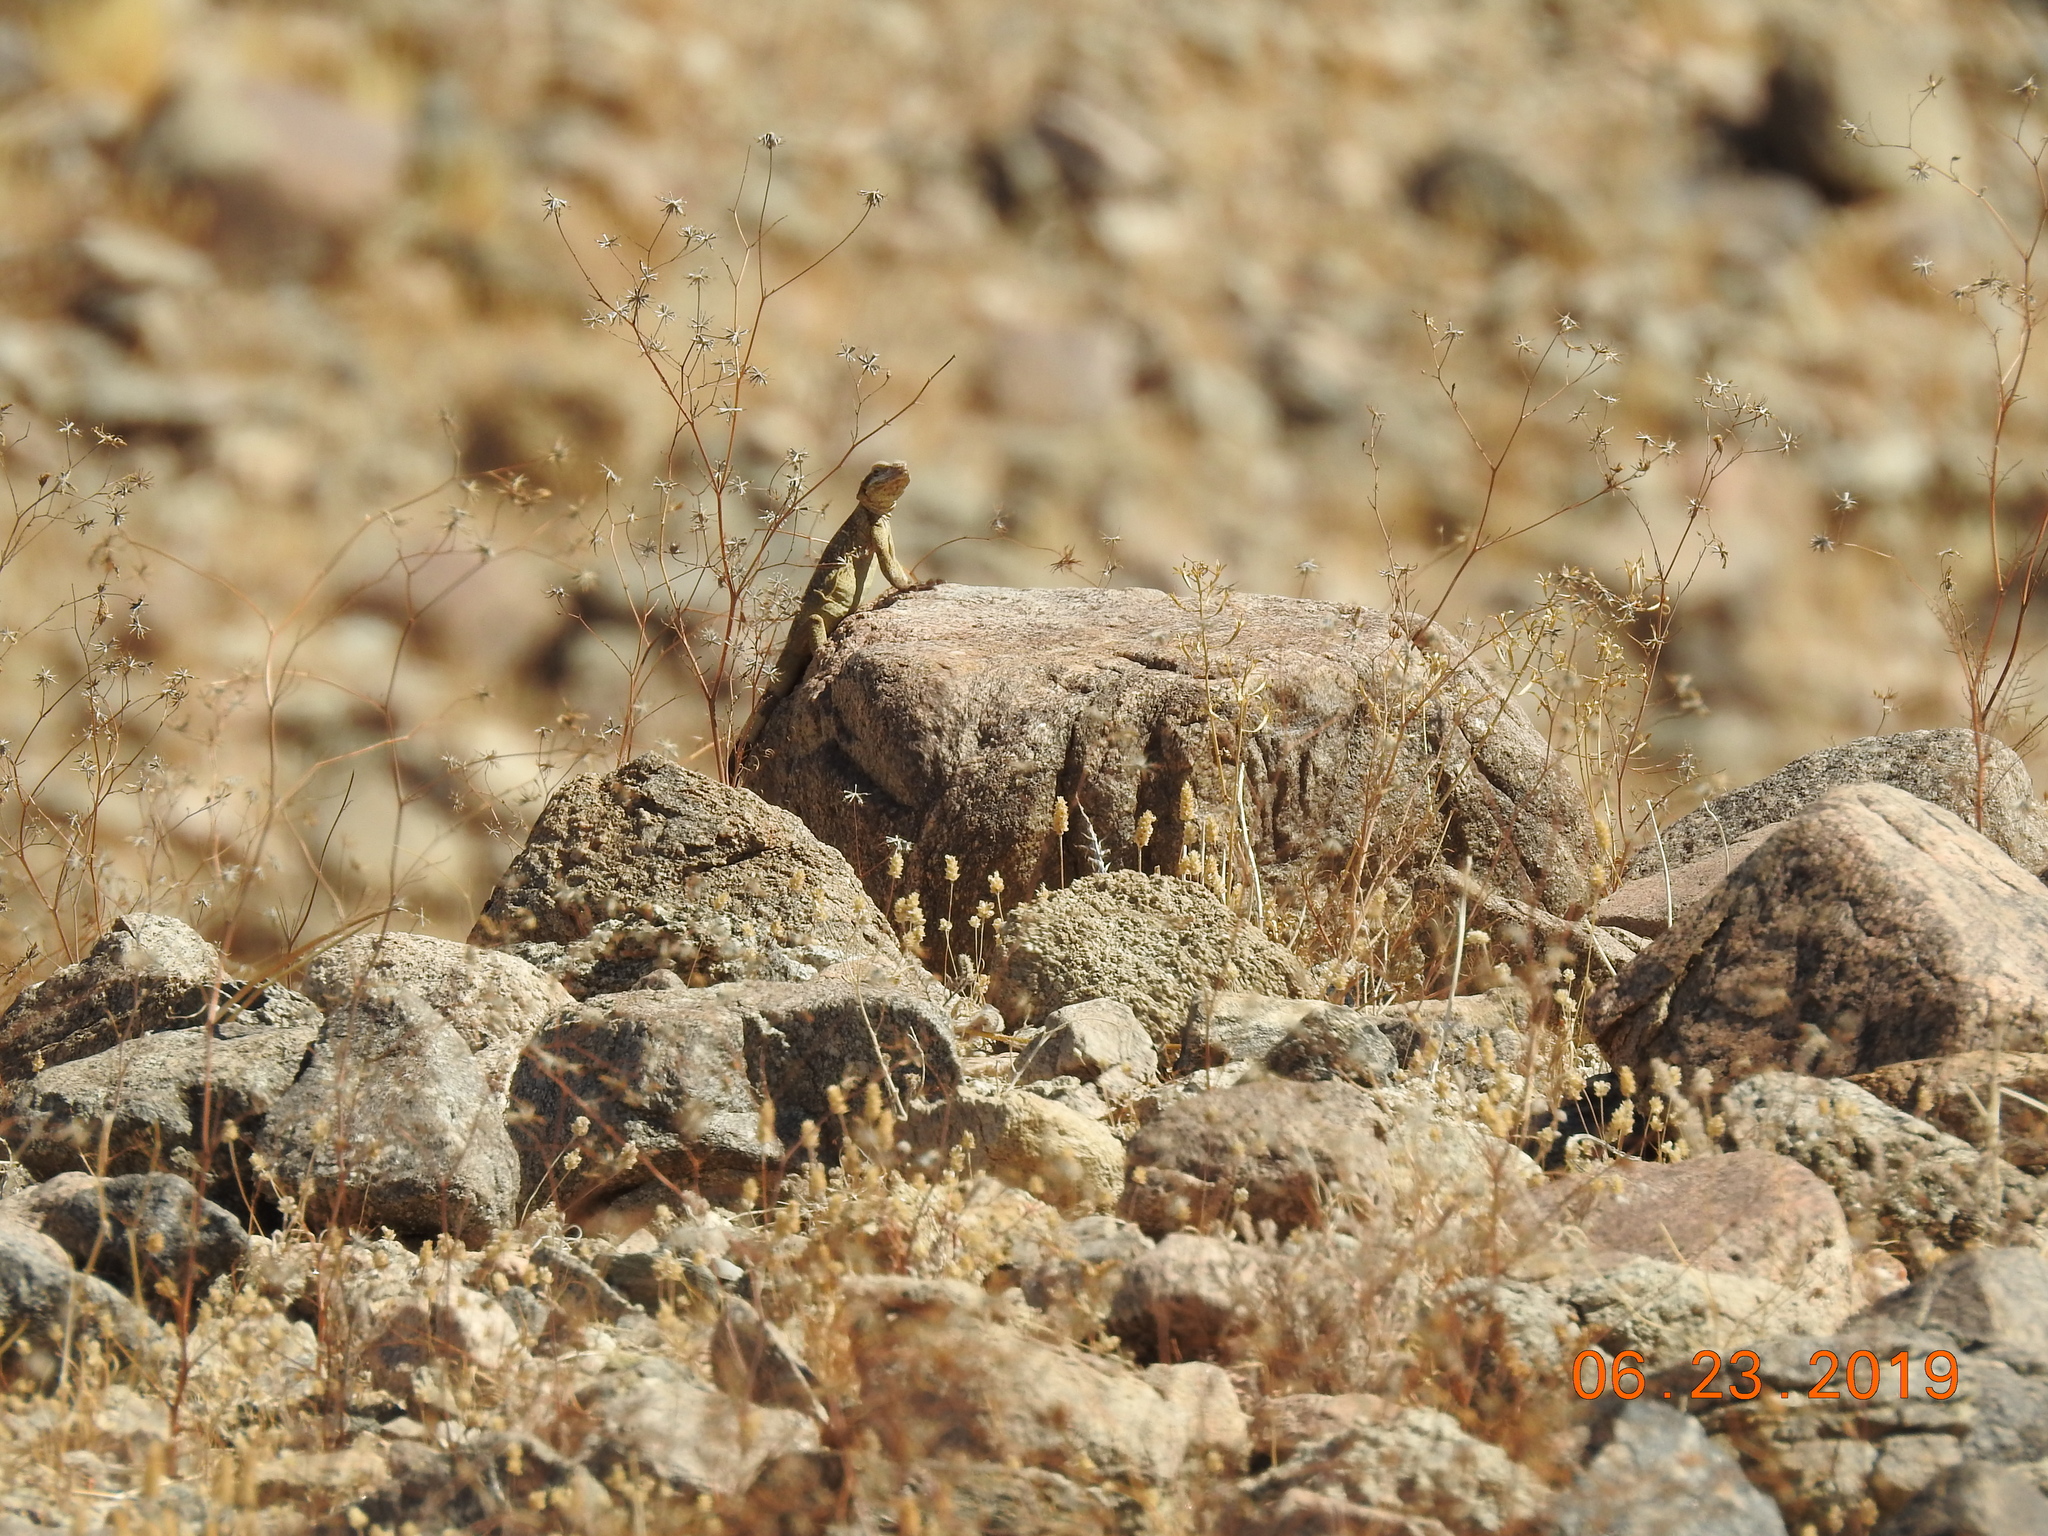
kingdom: Animalia
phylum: Chordata
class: Squamata
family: Iguanidae
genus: Sauromalus
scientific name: Sauromalus ater
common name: Northern chuckwalla
